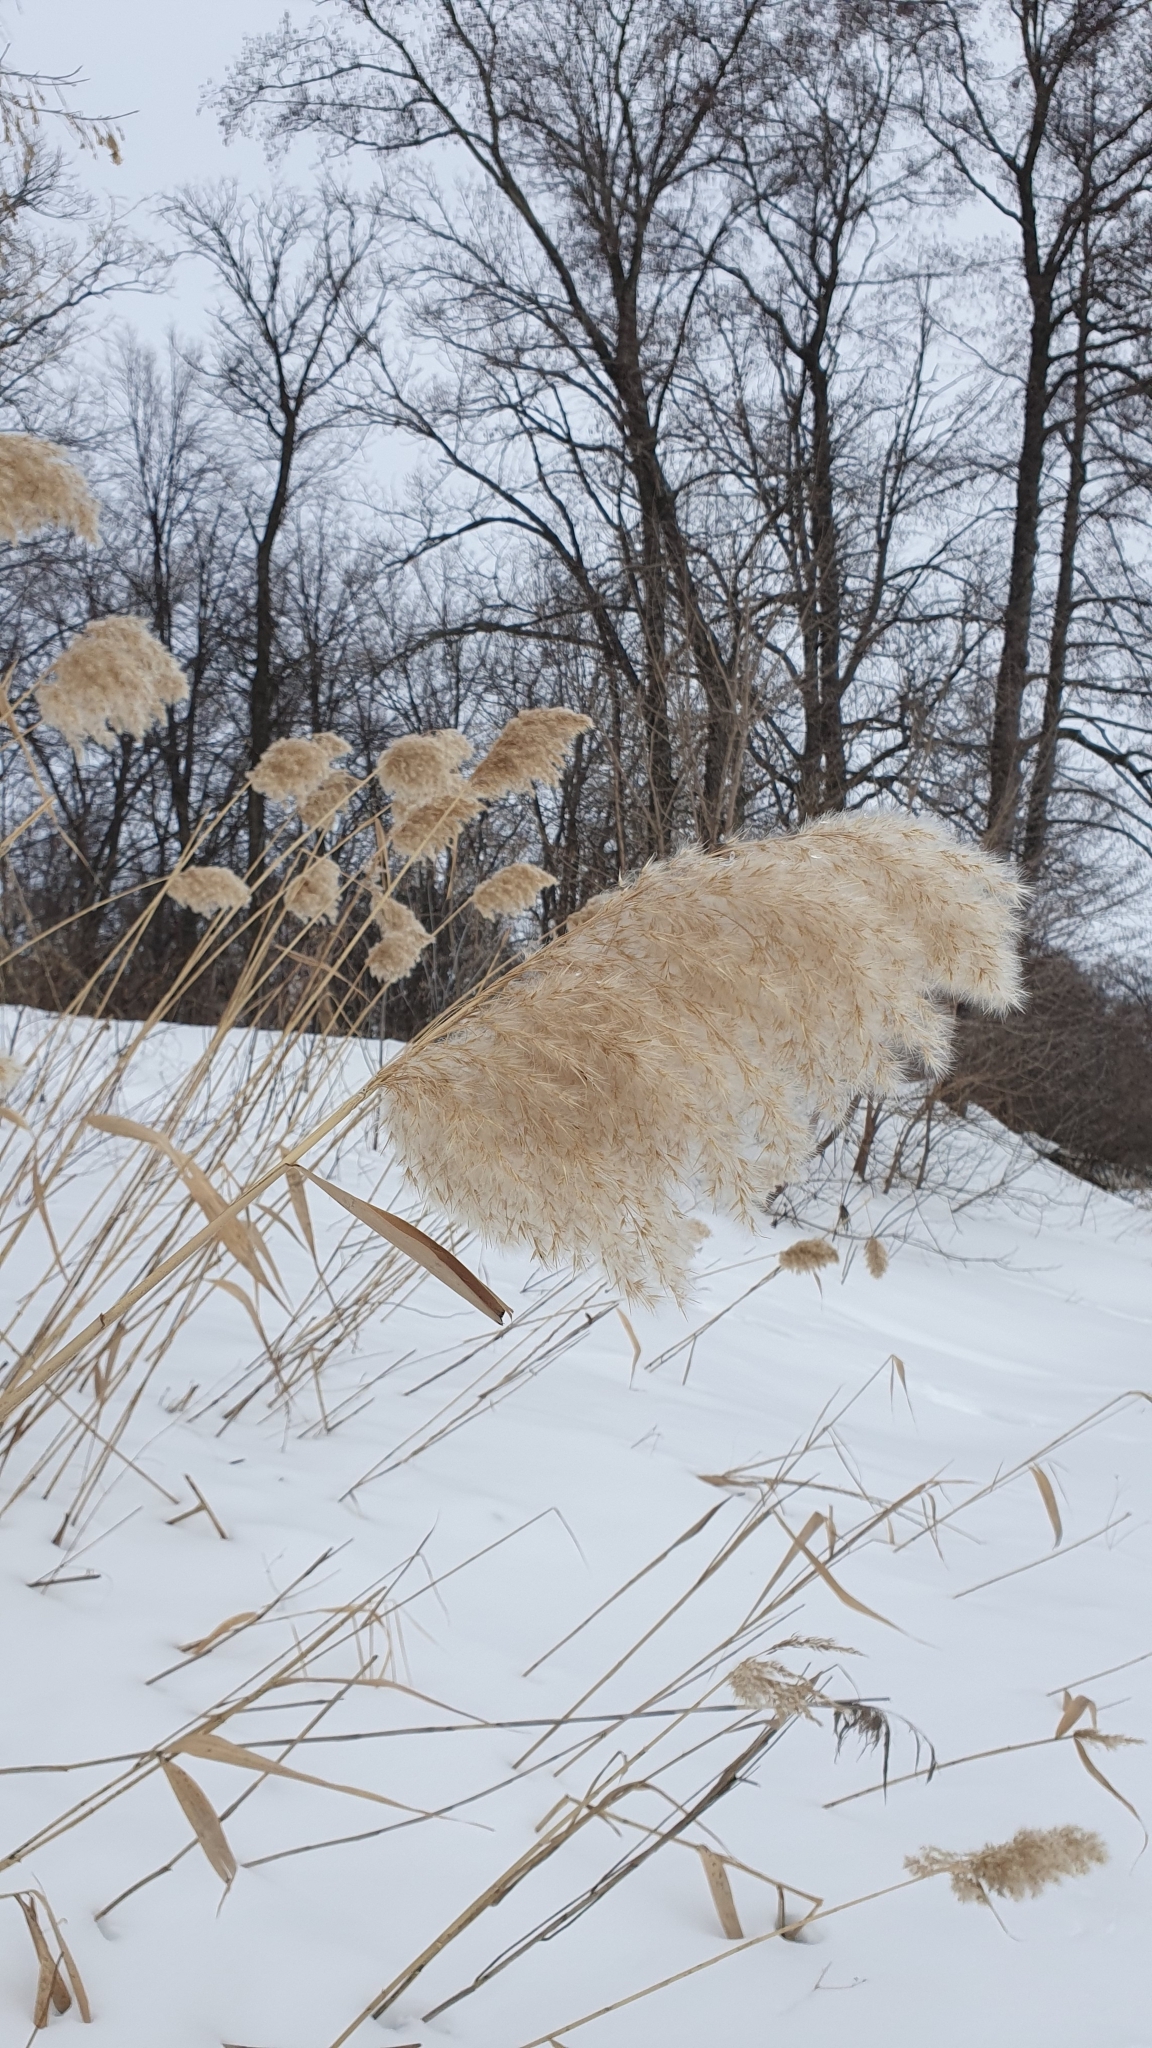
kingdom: Plantae
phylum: Tracheophyta
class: Liliopsida
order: Poales
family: Poaceae
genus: Phragmites
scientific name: Phragmites australis
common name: Common reed
